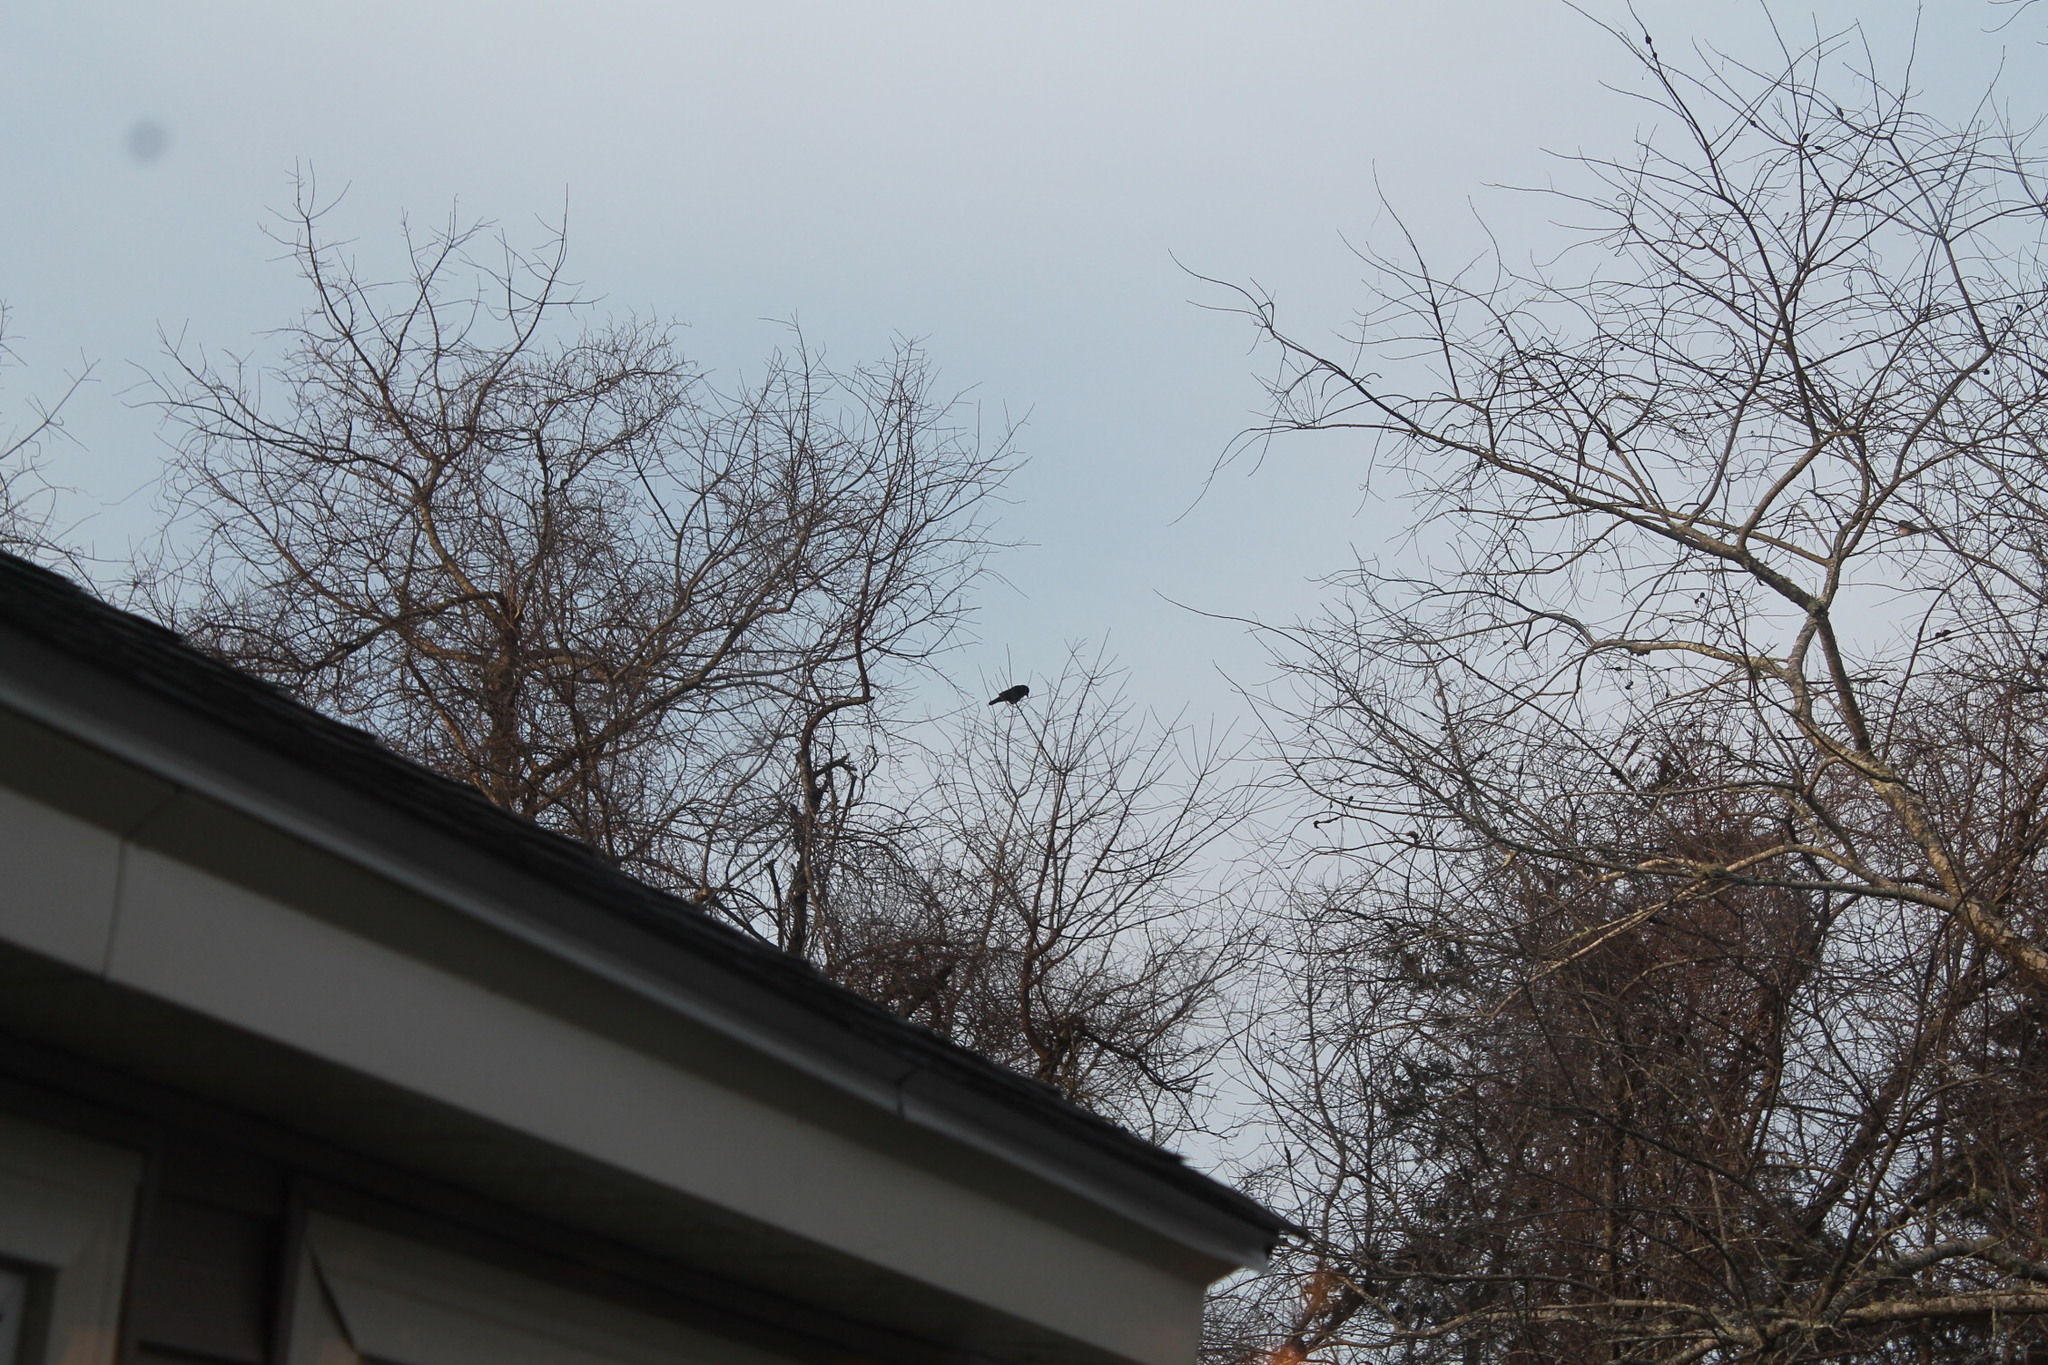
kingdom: Animalia
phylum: Chordata
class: Aves
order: Passeriformes
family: Corvidae
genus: Corvus
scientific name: Corvus brachyrhynchos
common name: American crow
